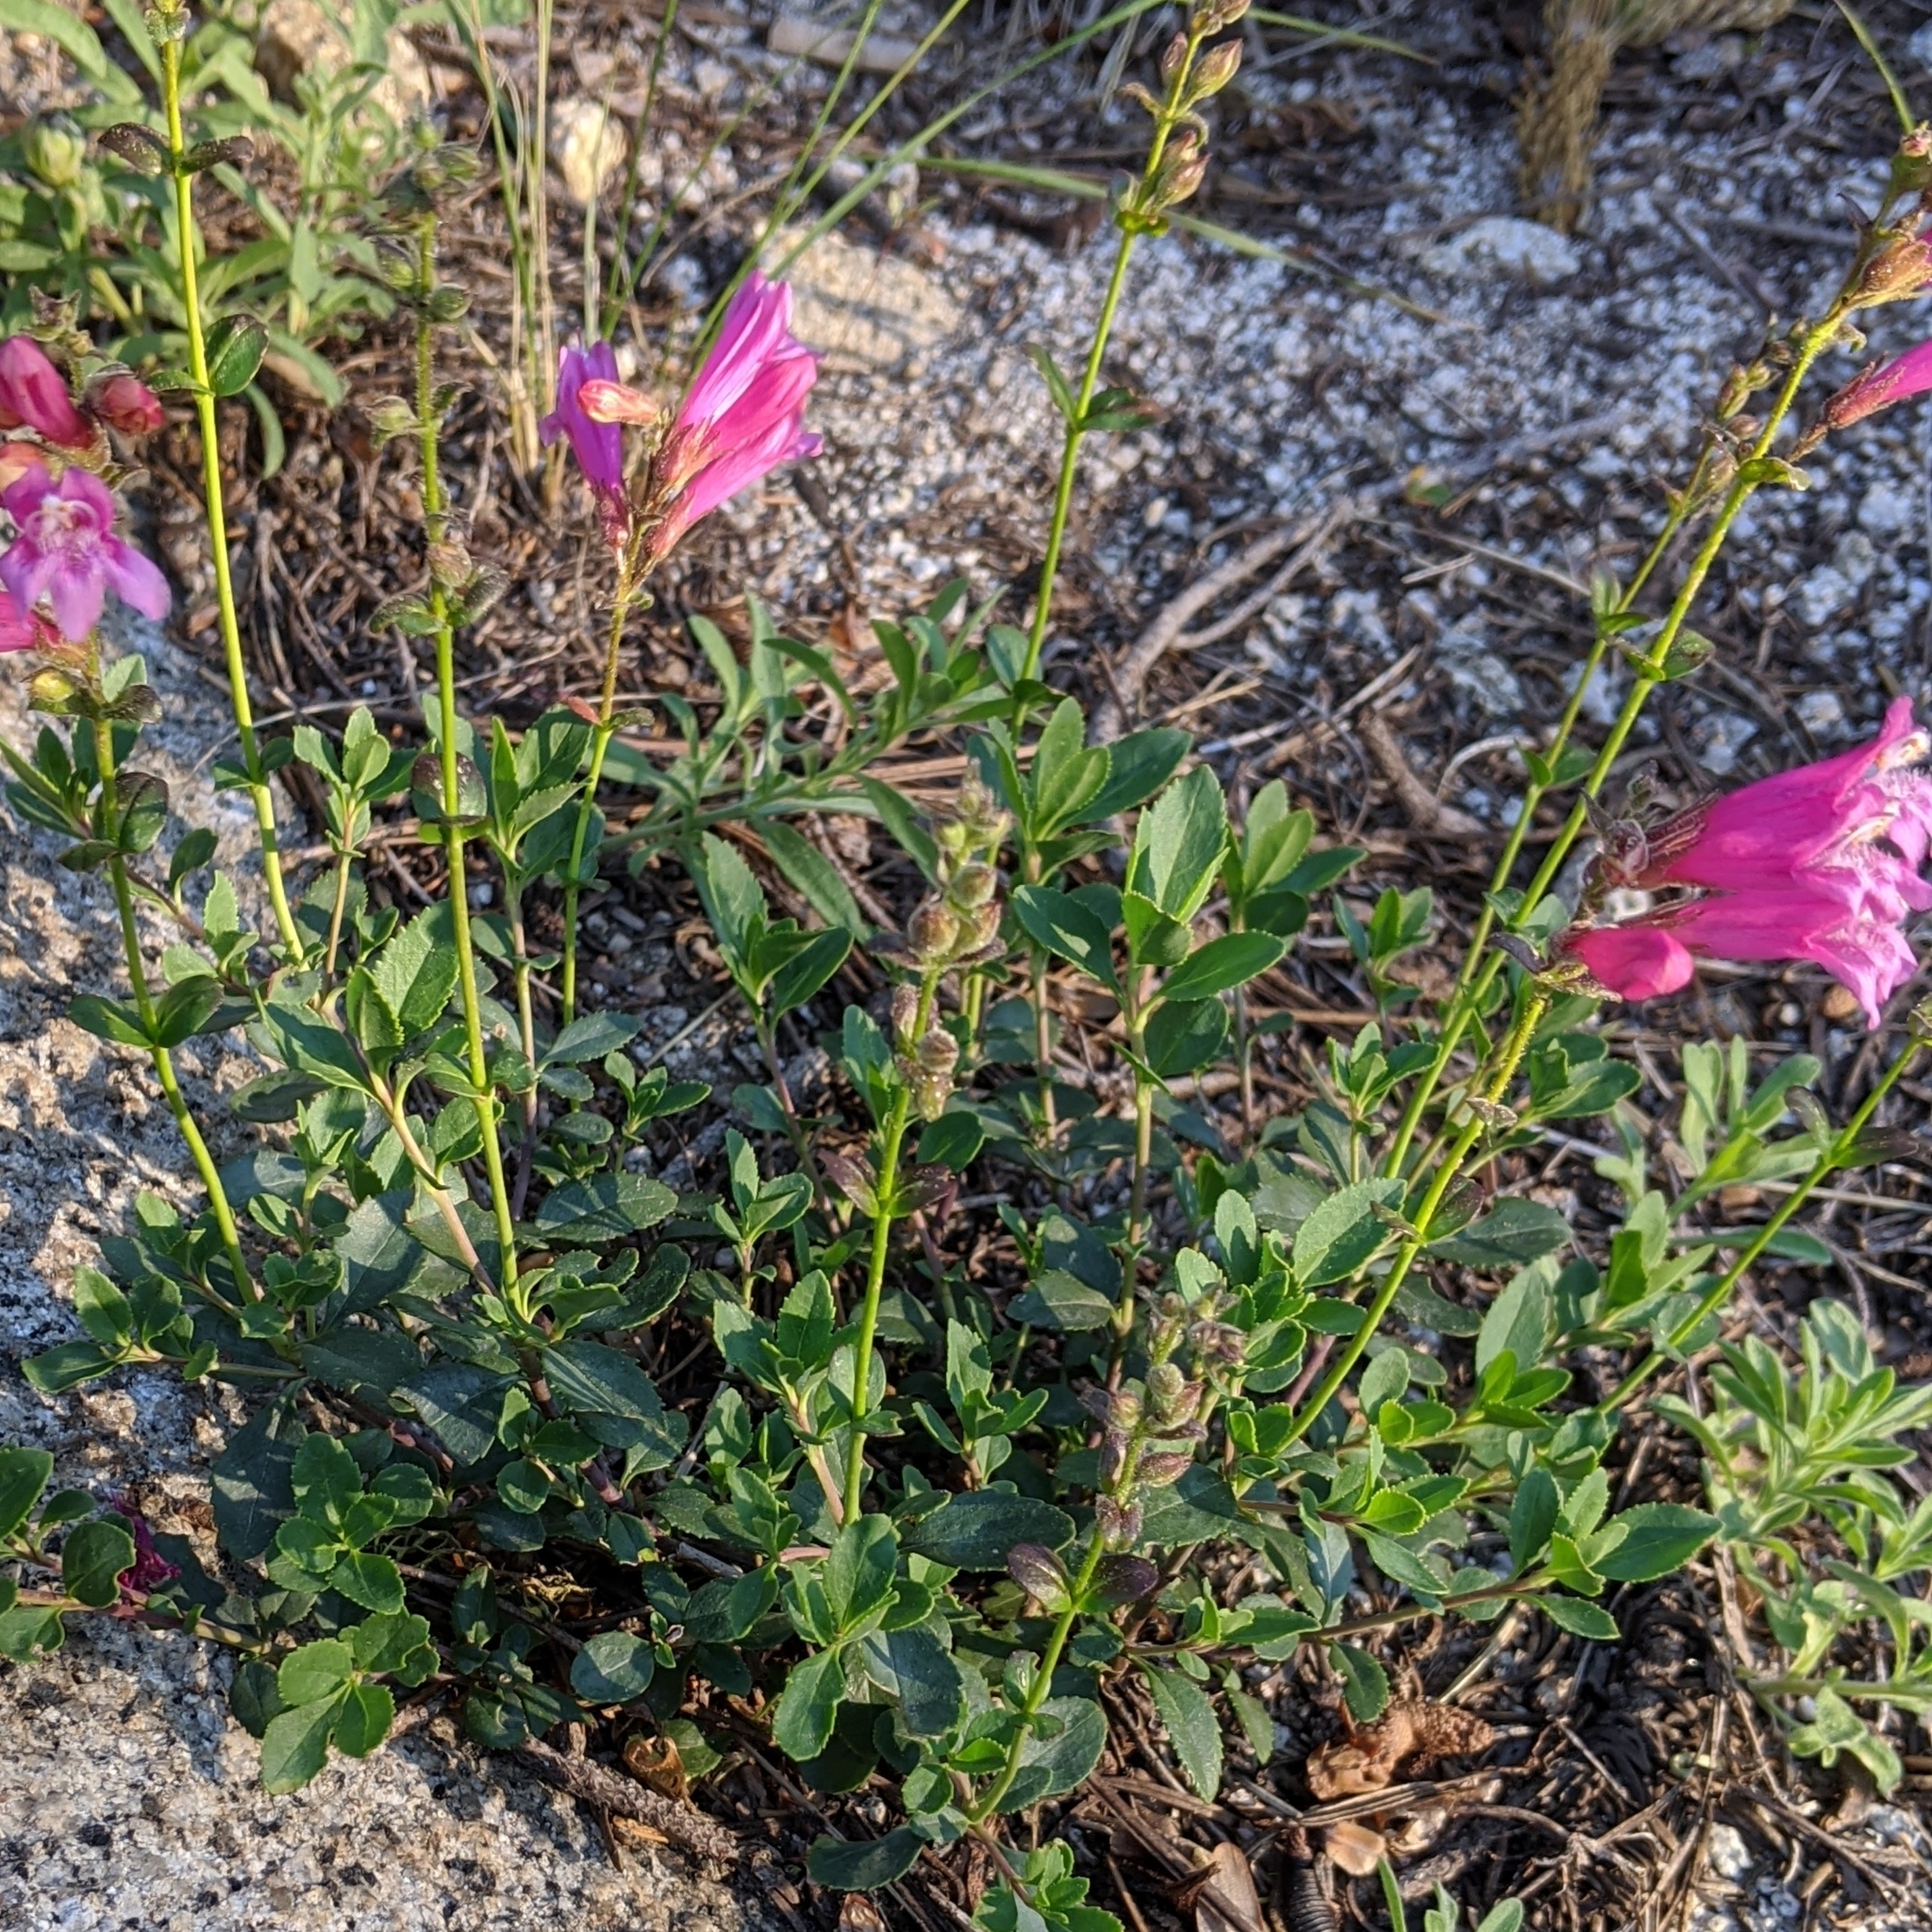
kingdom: Plantae
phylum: Tracheophyta
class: Magnoliopsida
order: Lamiales
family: Plantaginaceae
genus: Penstemon
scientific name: Penstemon newberryi
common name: Mountain-pride
